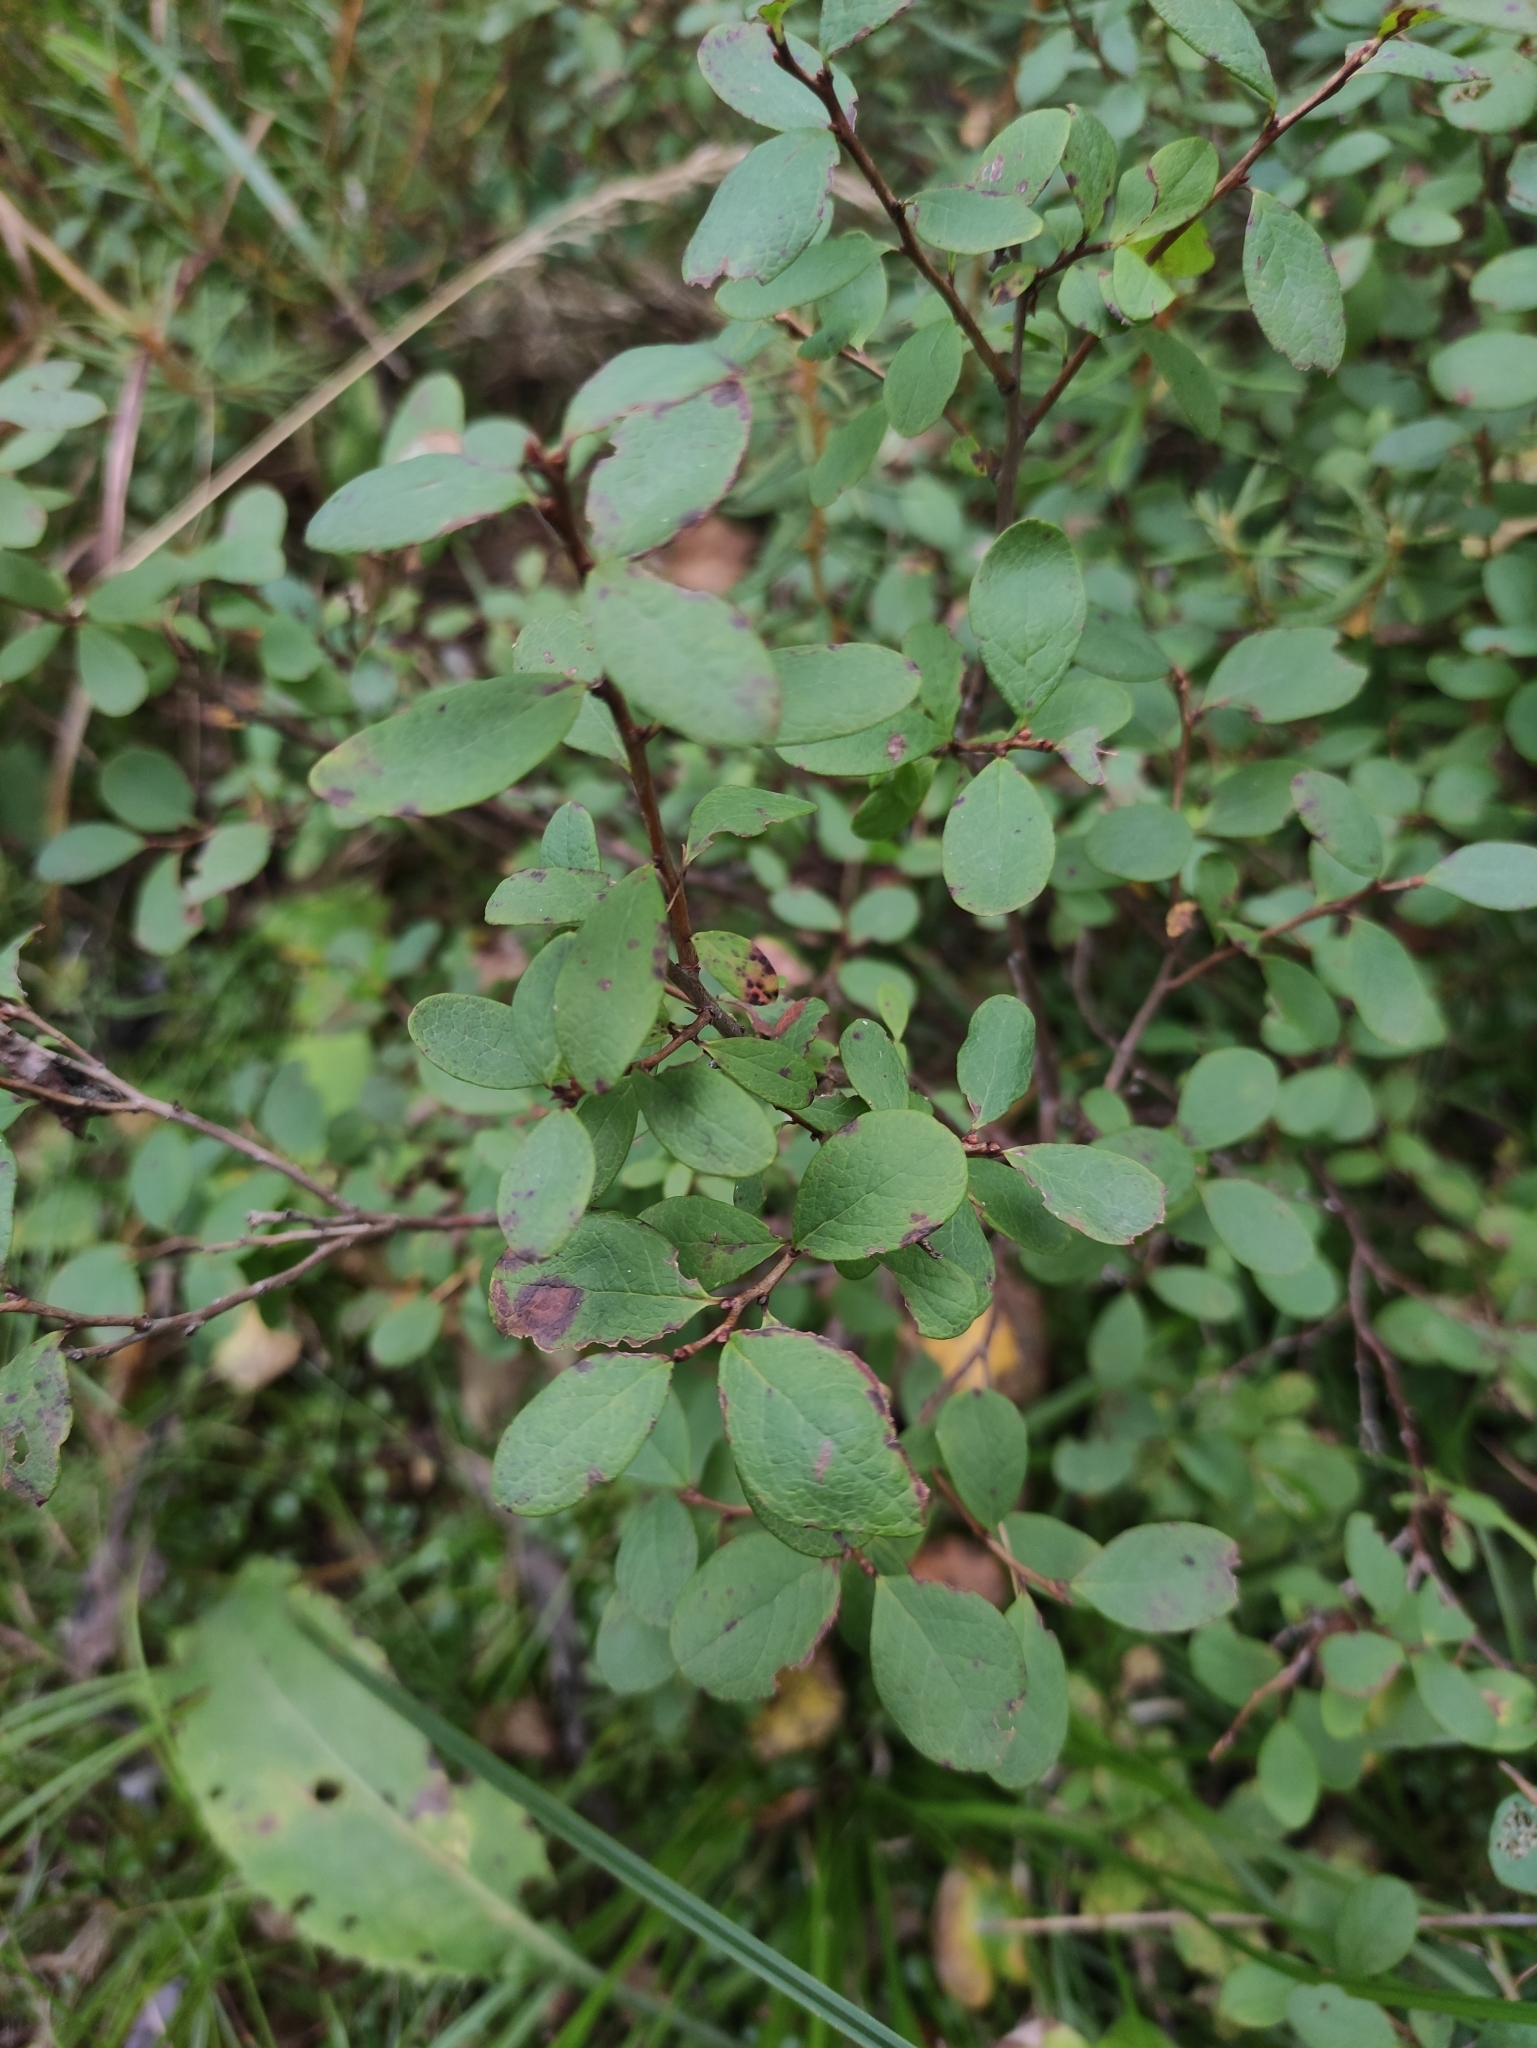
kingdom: Plantae
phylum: Tracheophyta
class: Magnoliopsida
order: Ericales
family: Ericaceae
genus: Vaccinium
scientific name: Vaccinium uliginosum
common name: Bog bilberry
